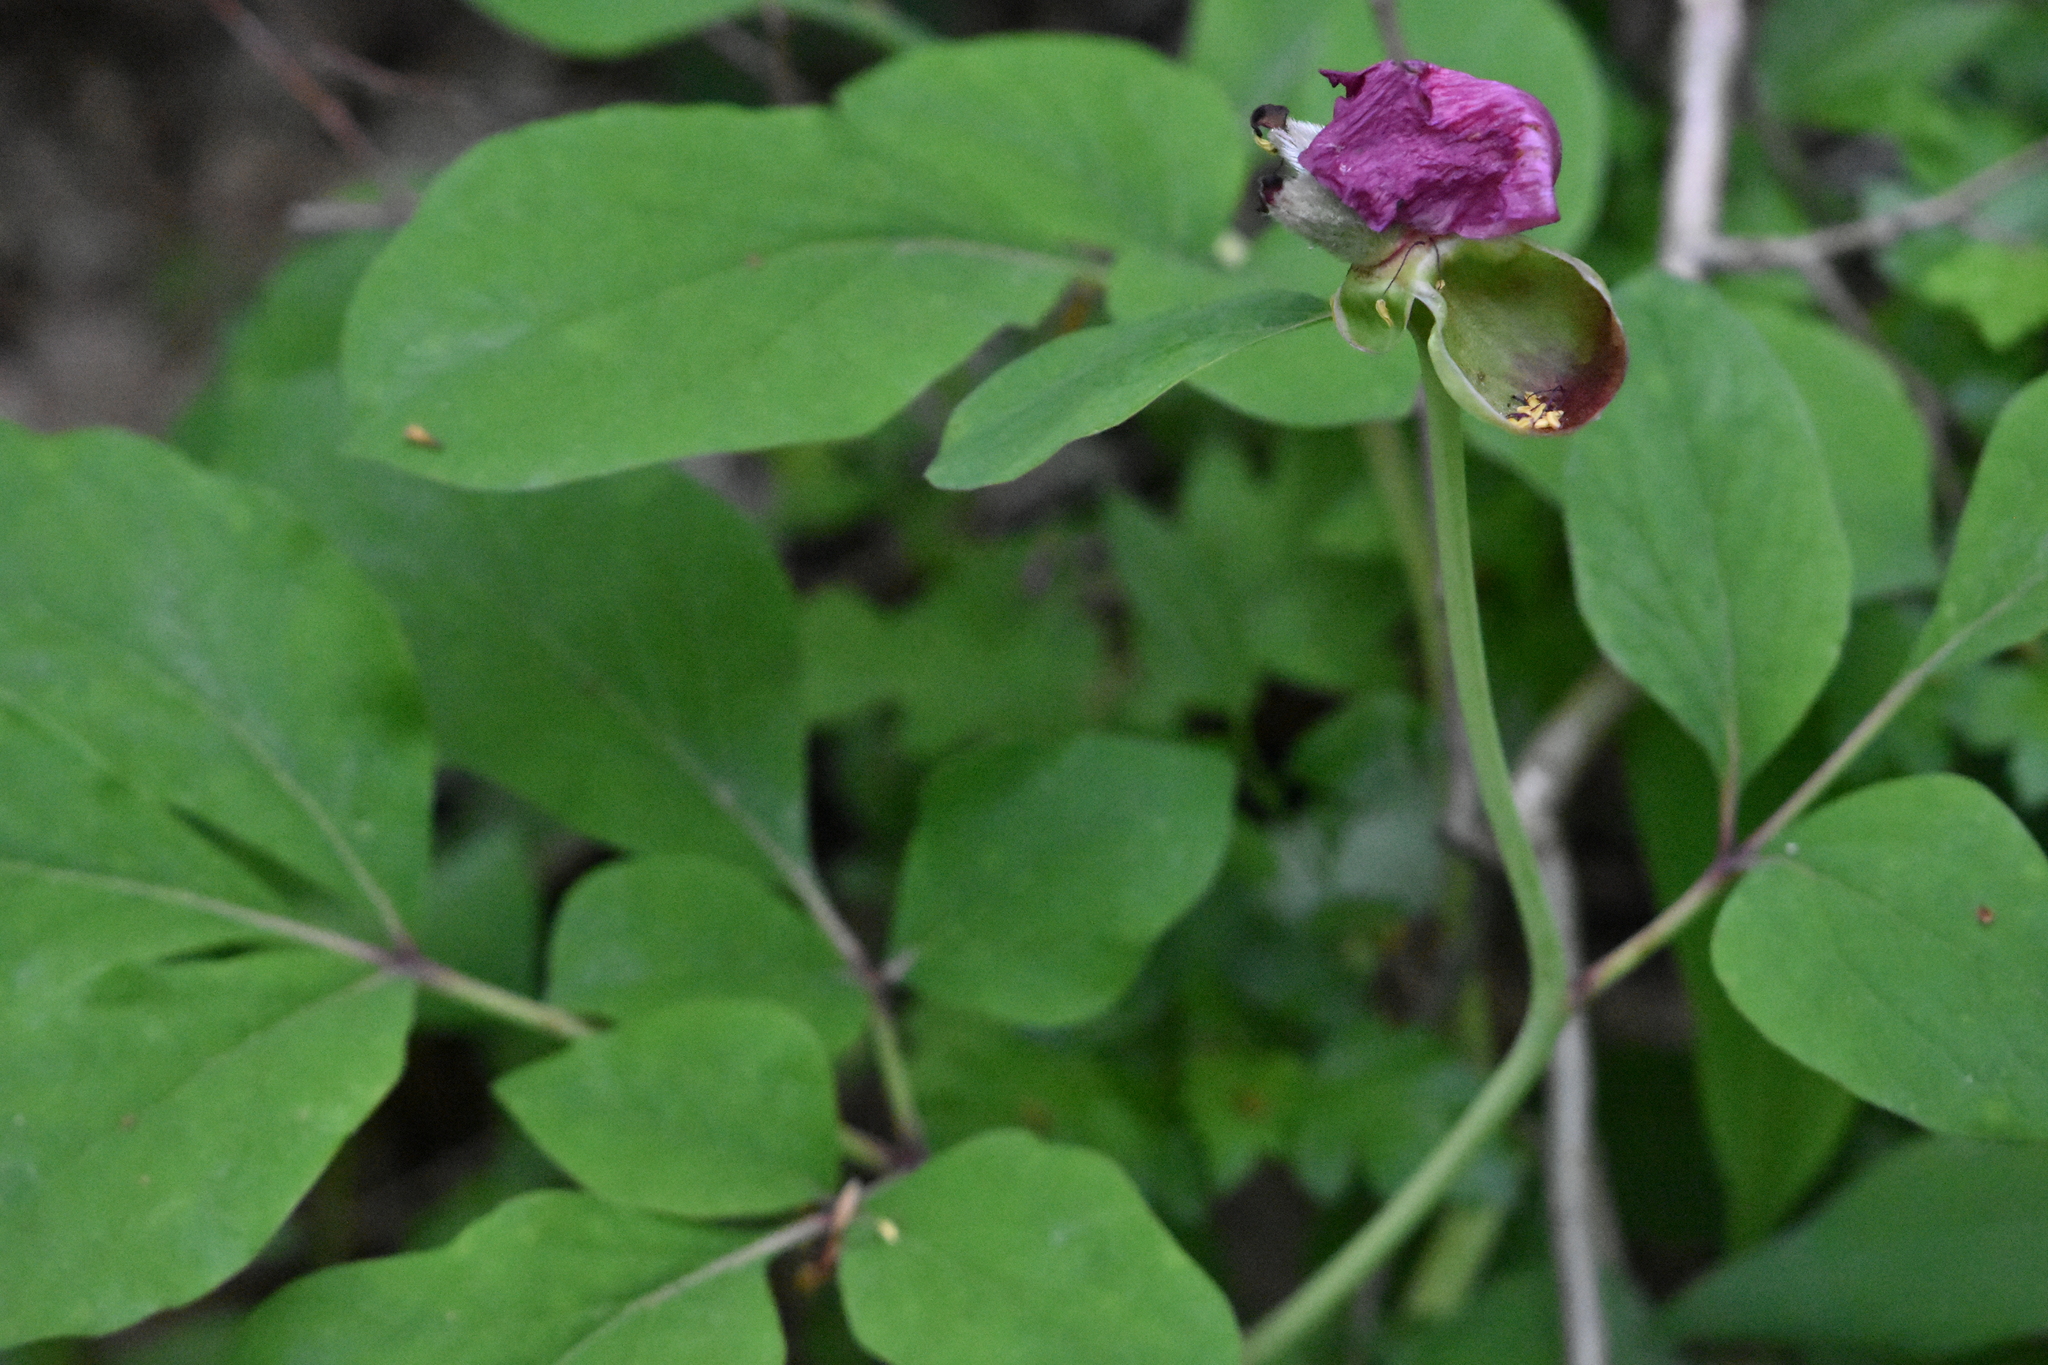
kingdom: Plantae
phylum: Tracheophyta
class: Magnoliopsida
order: Saxifragales
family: Paeoniaceae
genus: Paeonia
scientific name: Paeonia caucasica
